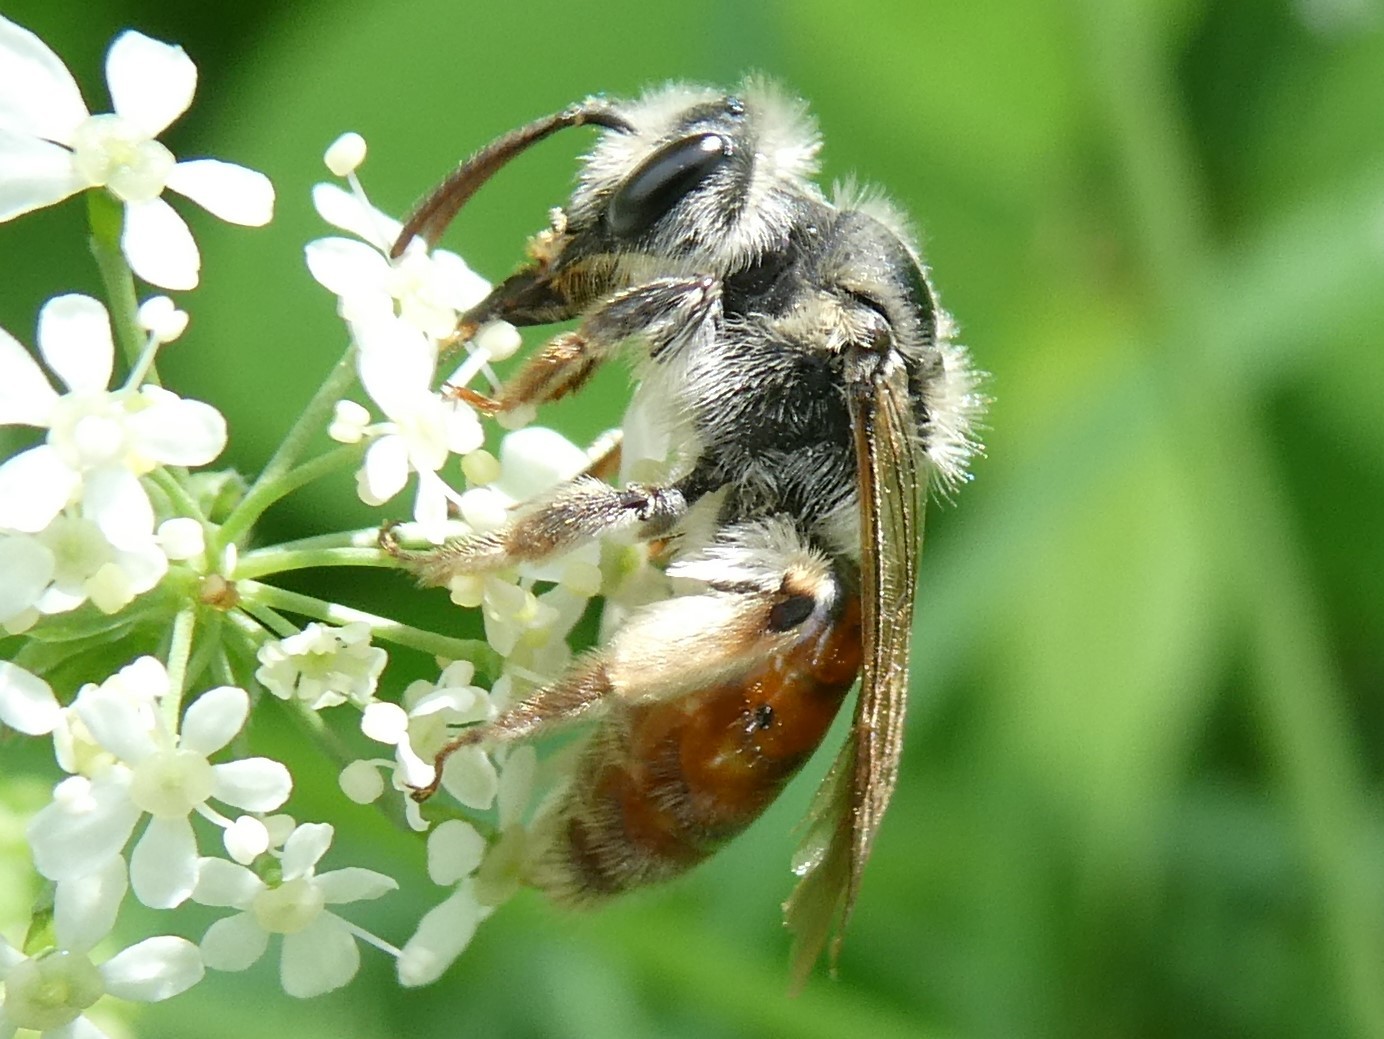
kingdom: Animalia
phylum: Arthropoda
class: Insecta
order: Hymenoptera
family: Andrenidae
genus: Andrena
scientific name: Andrena erythrogaster
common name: Red-tailed mining bee
